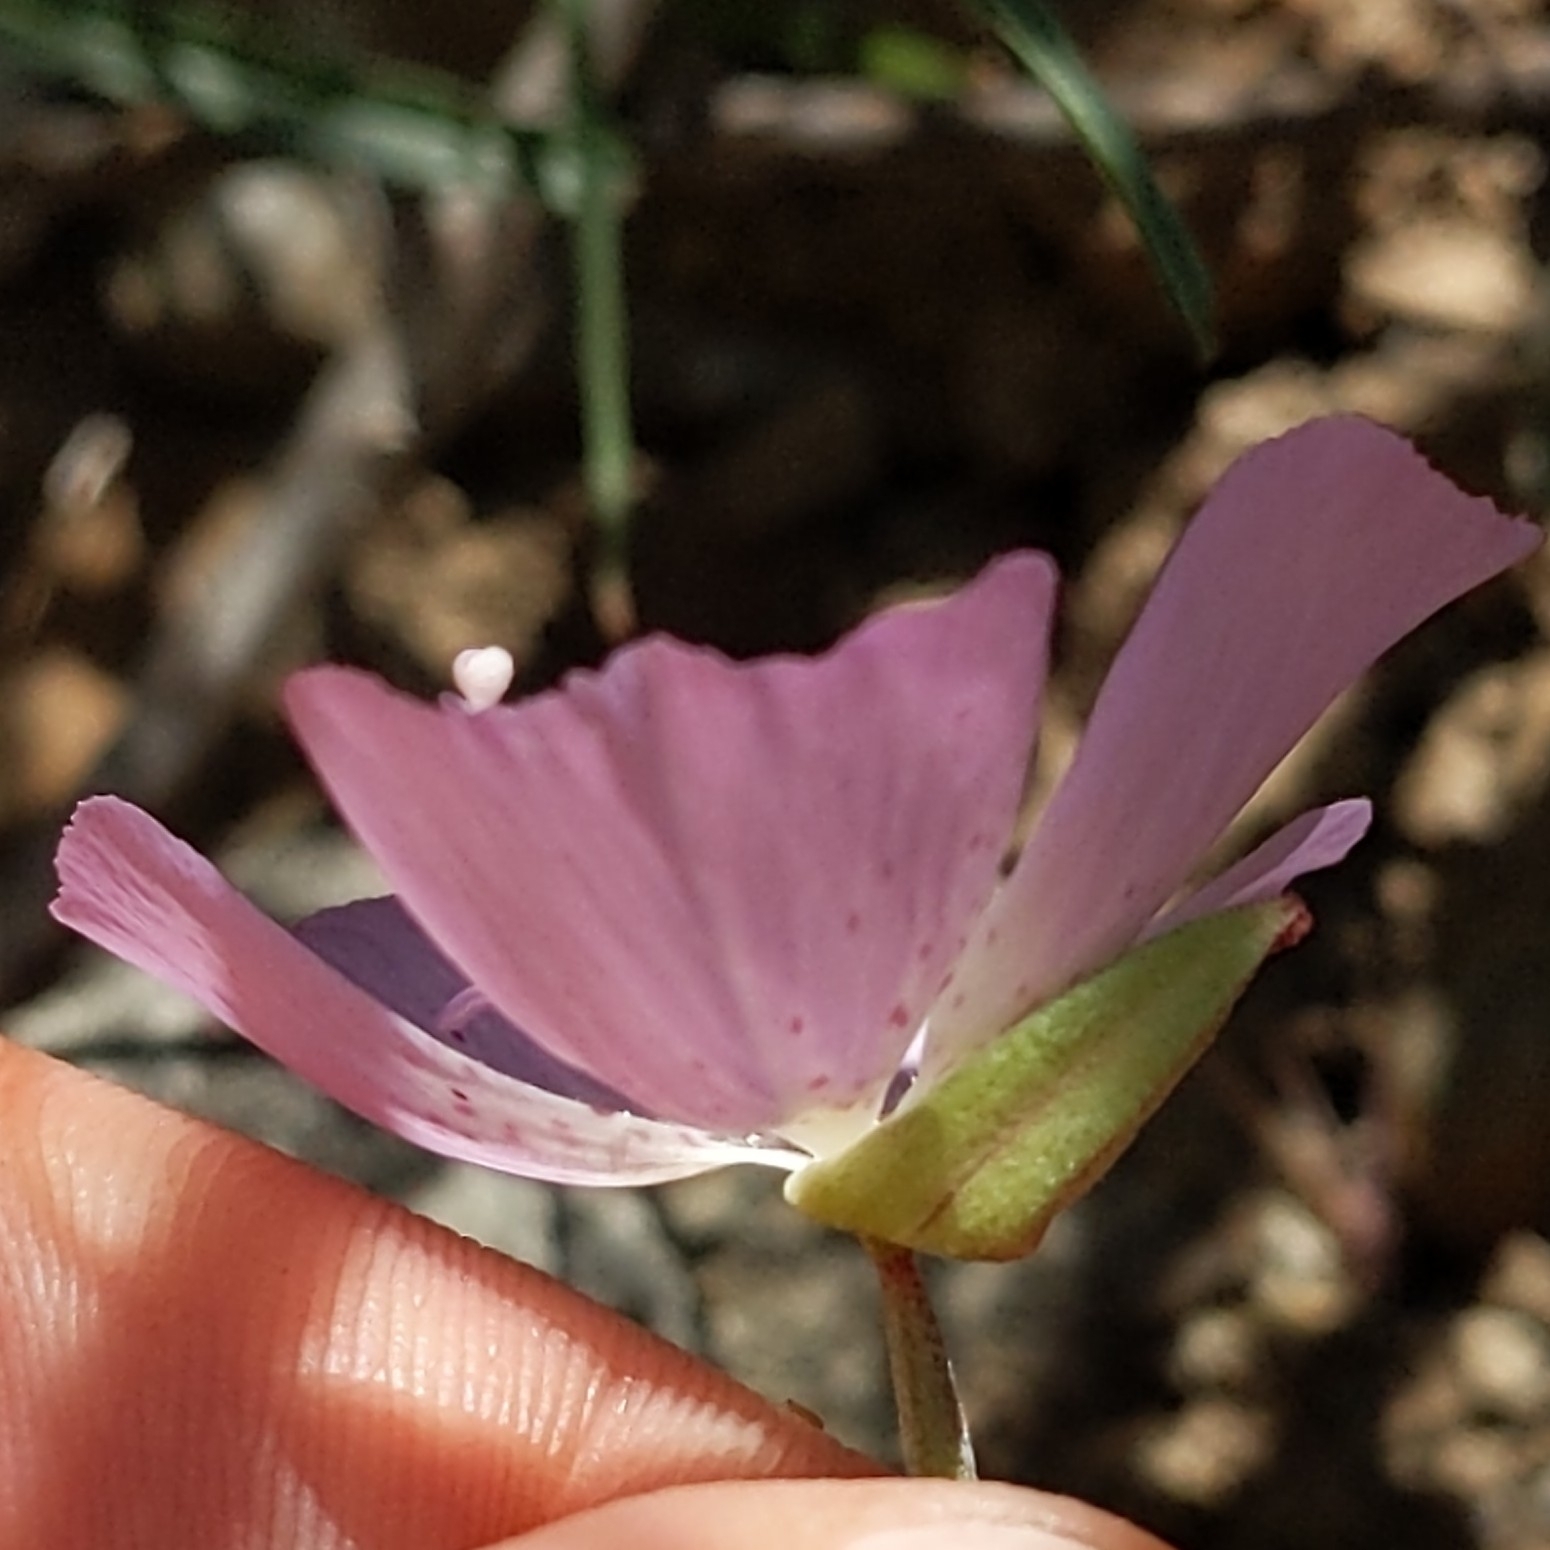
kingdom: Plantae
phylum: Tracheophyta
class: Magnoliopsida
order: Myrtales
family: Onagraceae
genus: Clarkia
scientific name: Clarkia bottae
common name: Punch-bowl godetia
